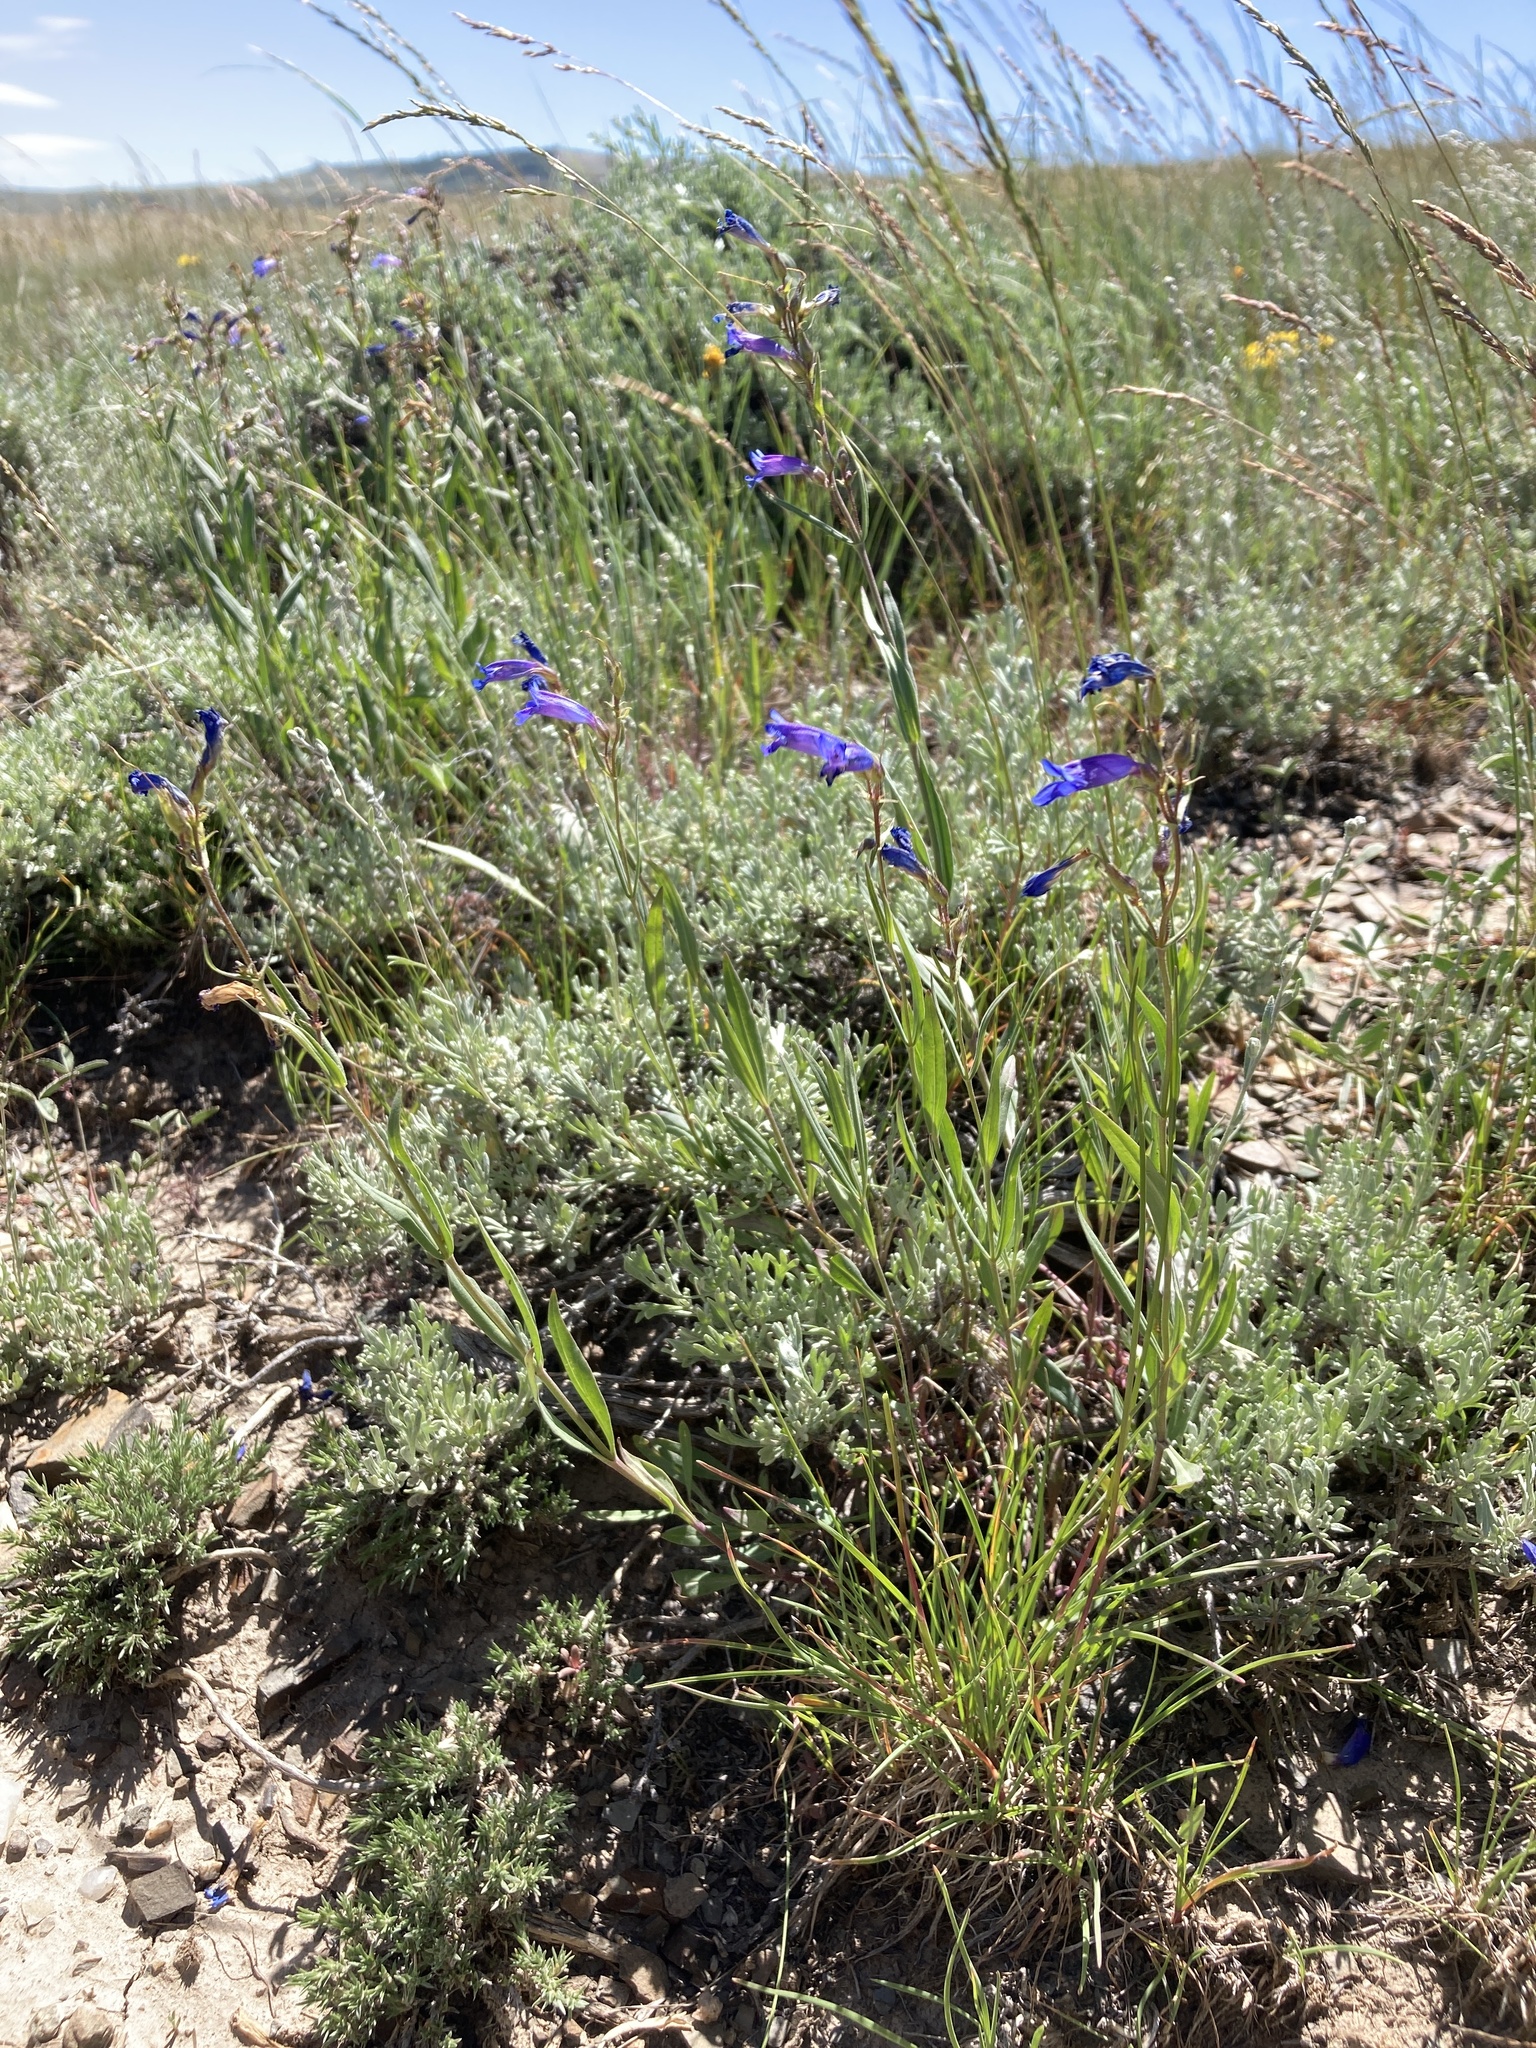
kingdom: Plantae
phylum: Tracheophyta
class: Magnoliopsida
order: Lamiales
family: Plantaginaceae
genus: Penstemon
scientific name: Penstemon radicosus
